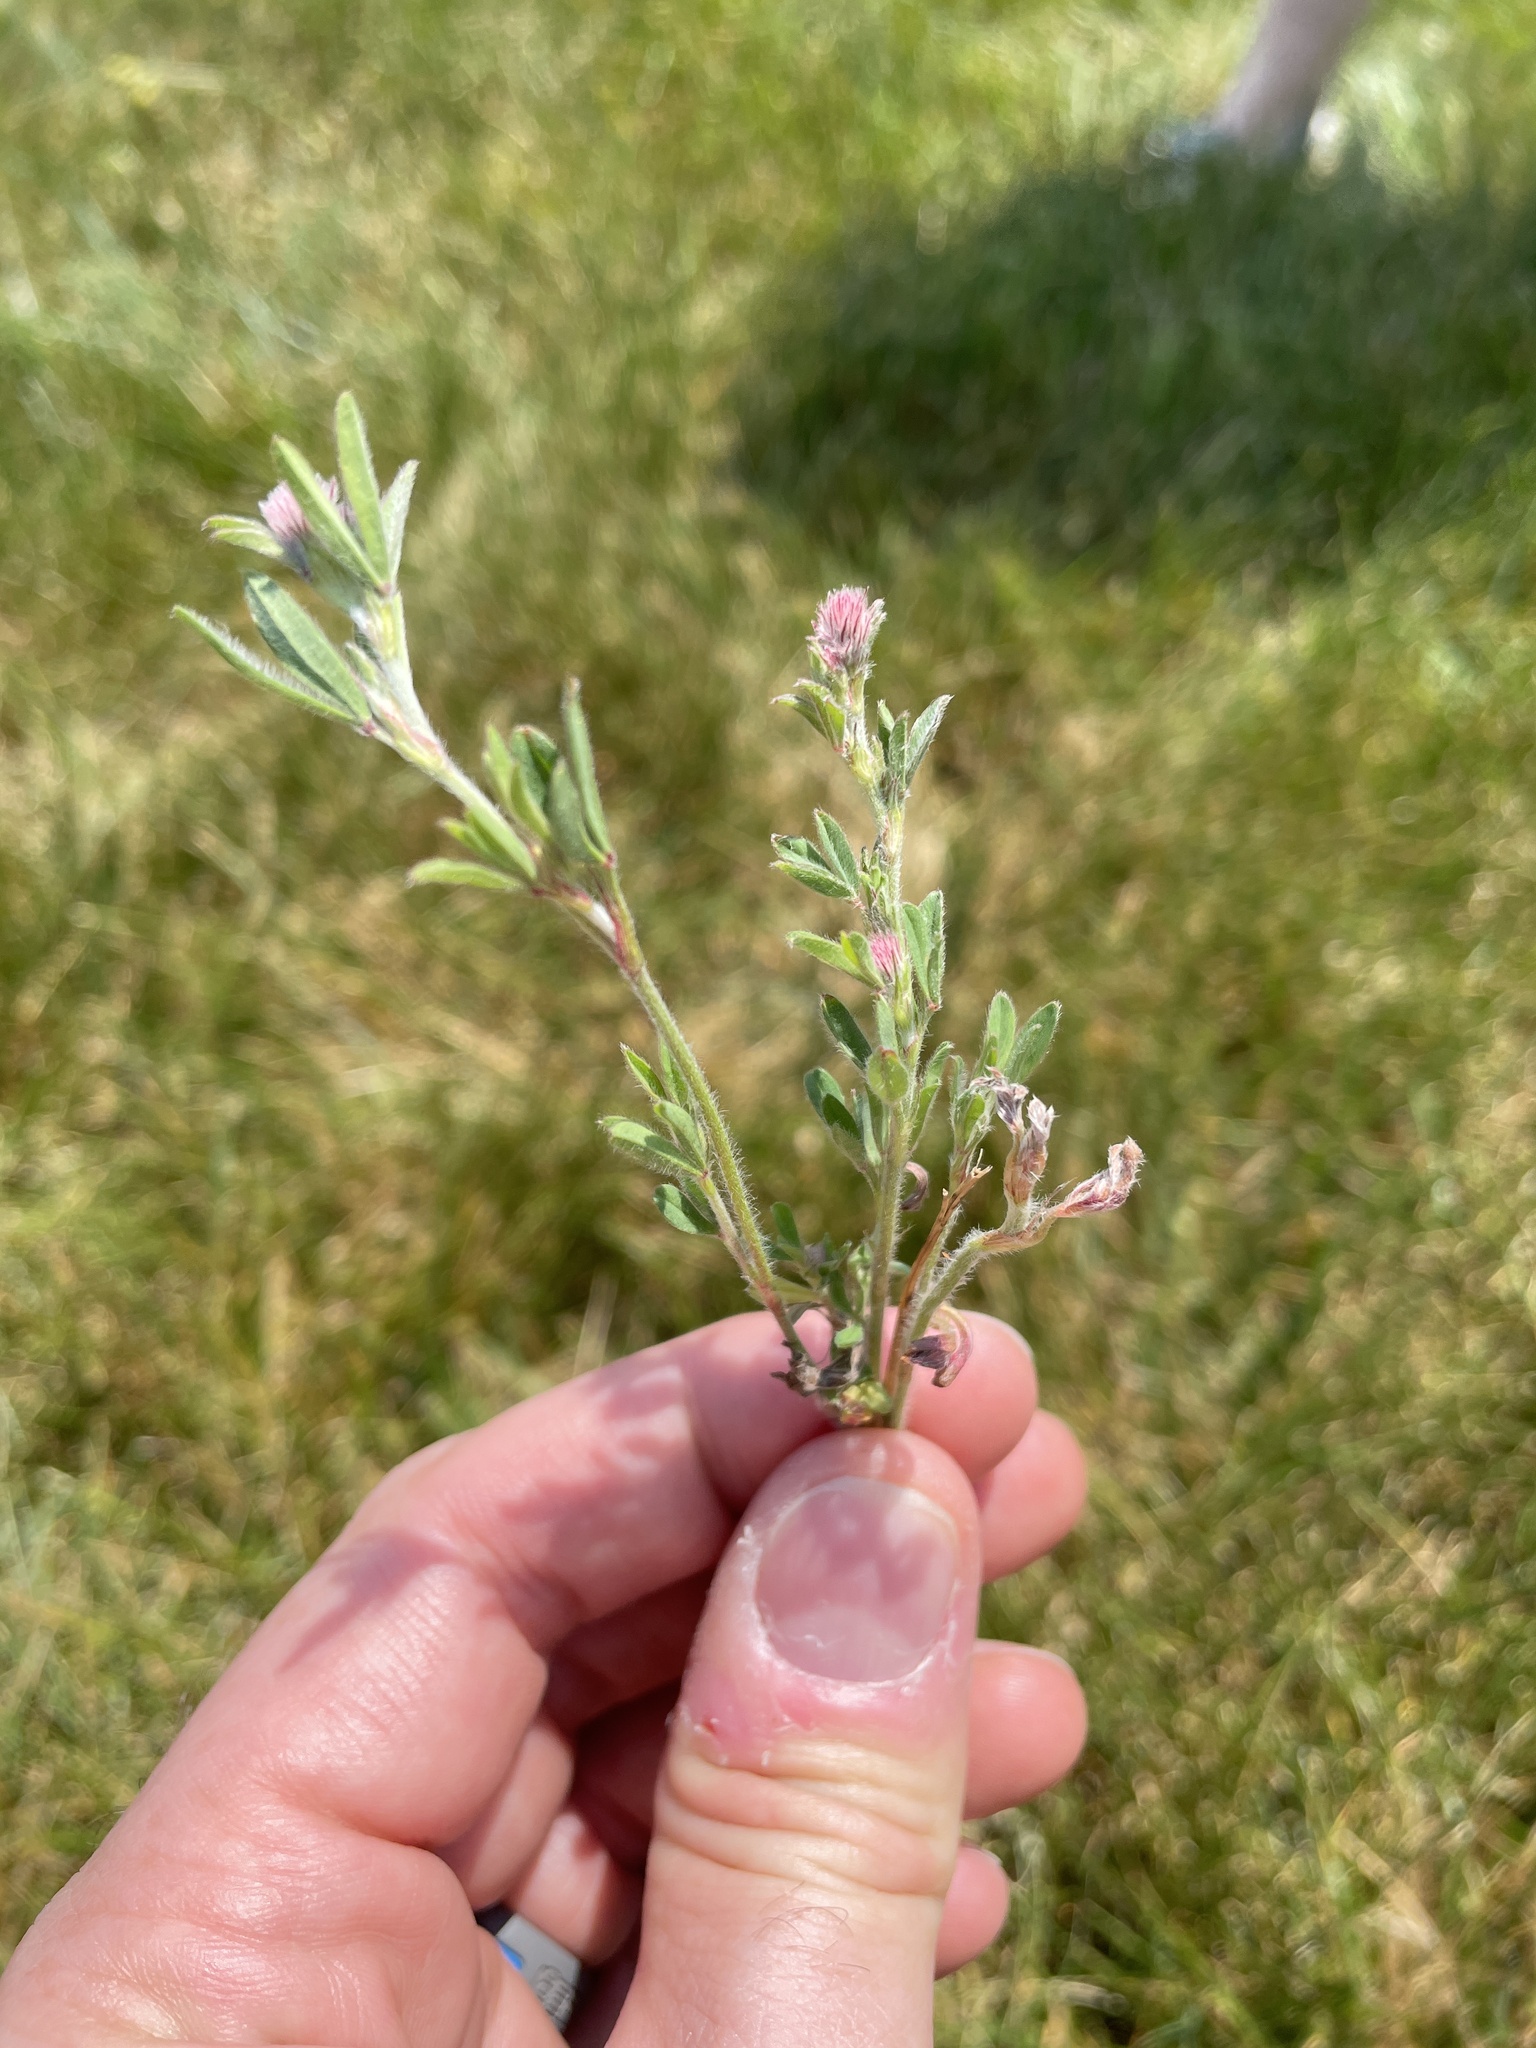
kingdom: Plantae
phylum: Tracheophyta
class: Magnoliopsida
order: Fabales
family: Fabaceae
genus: Trifolium
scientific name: Trifolium arvense
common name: Hare's-foot clover
